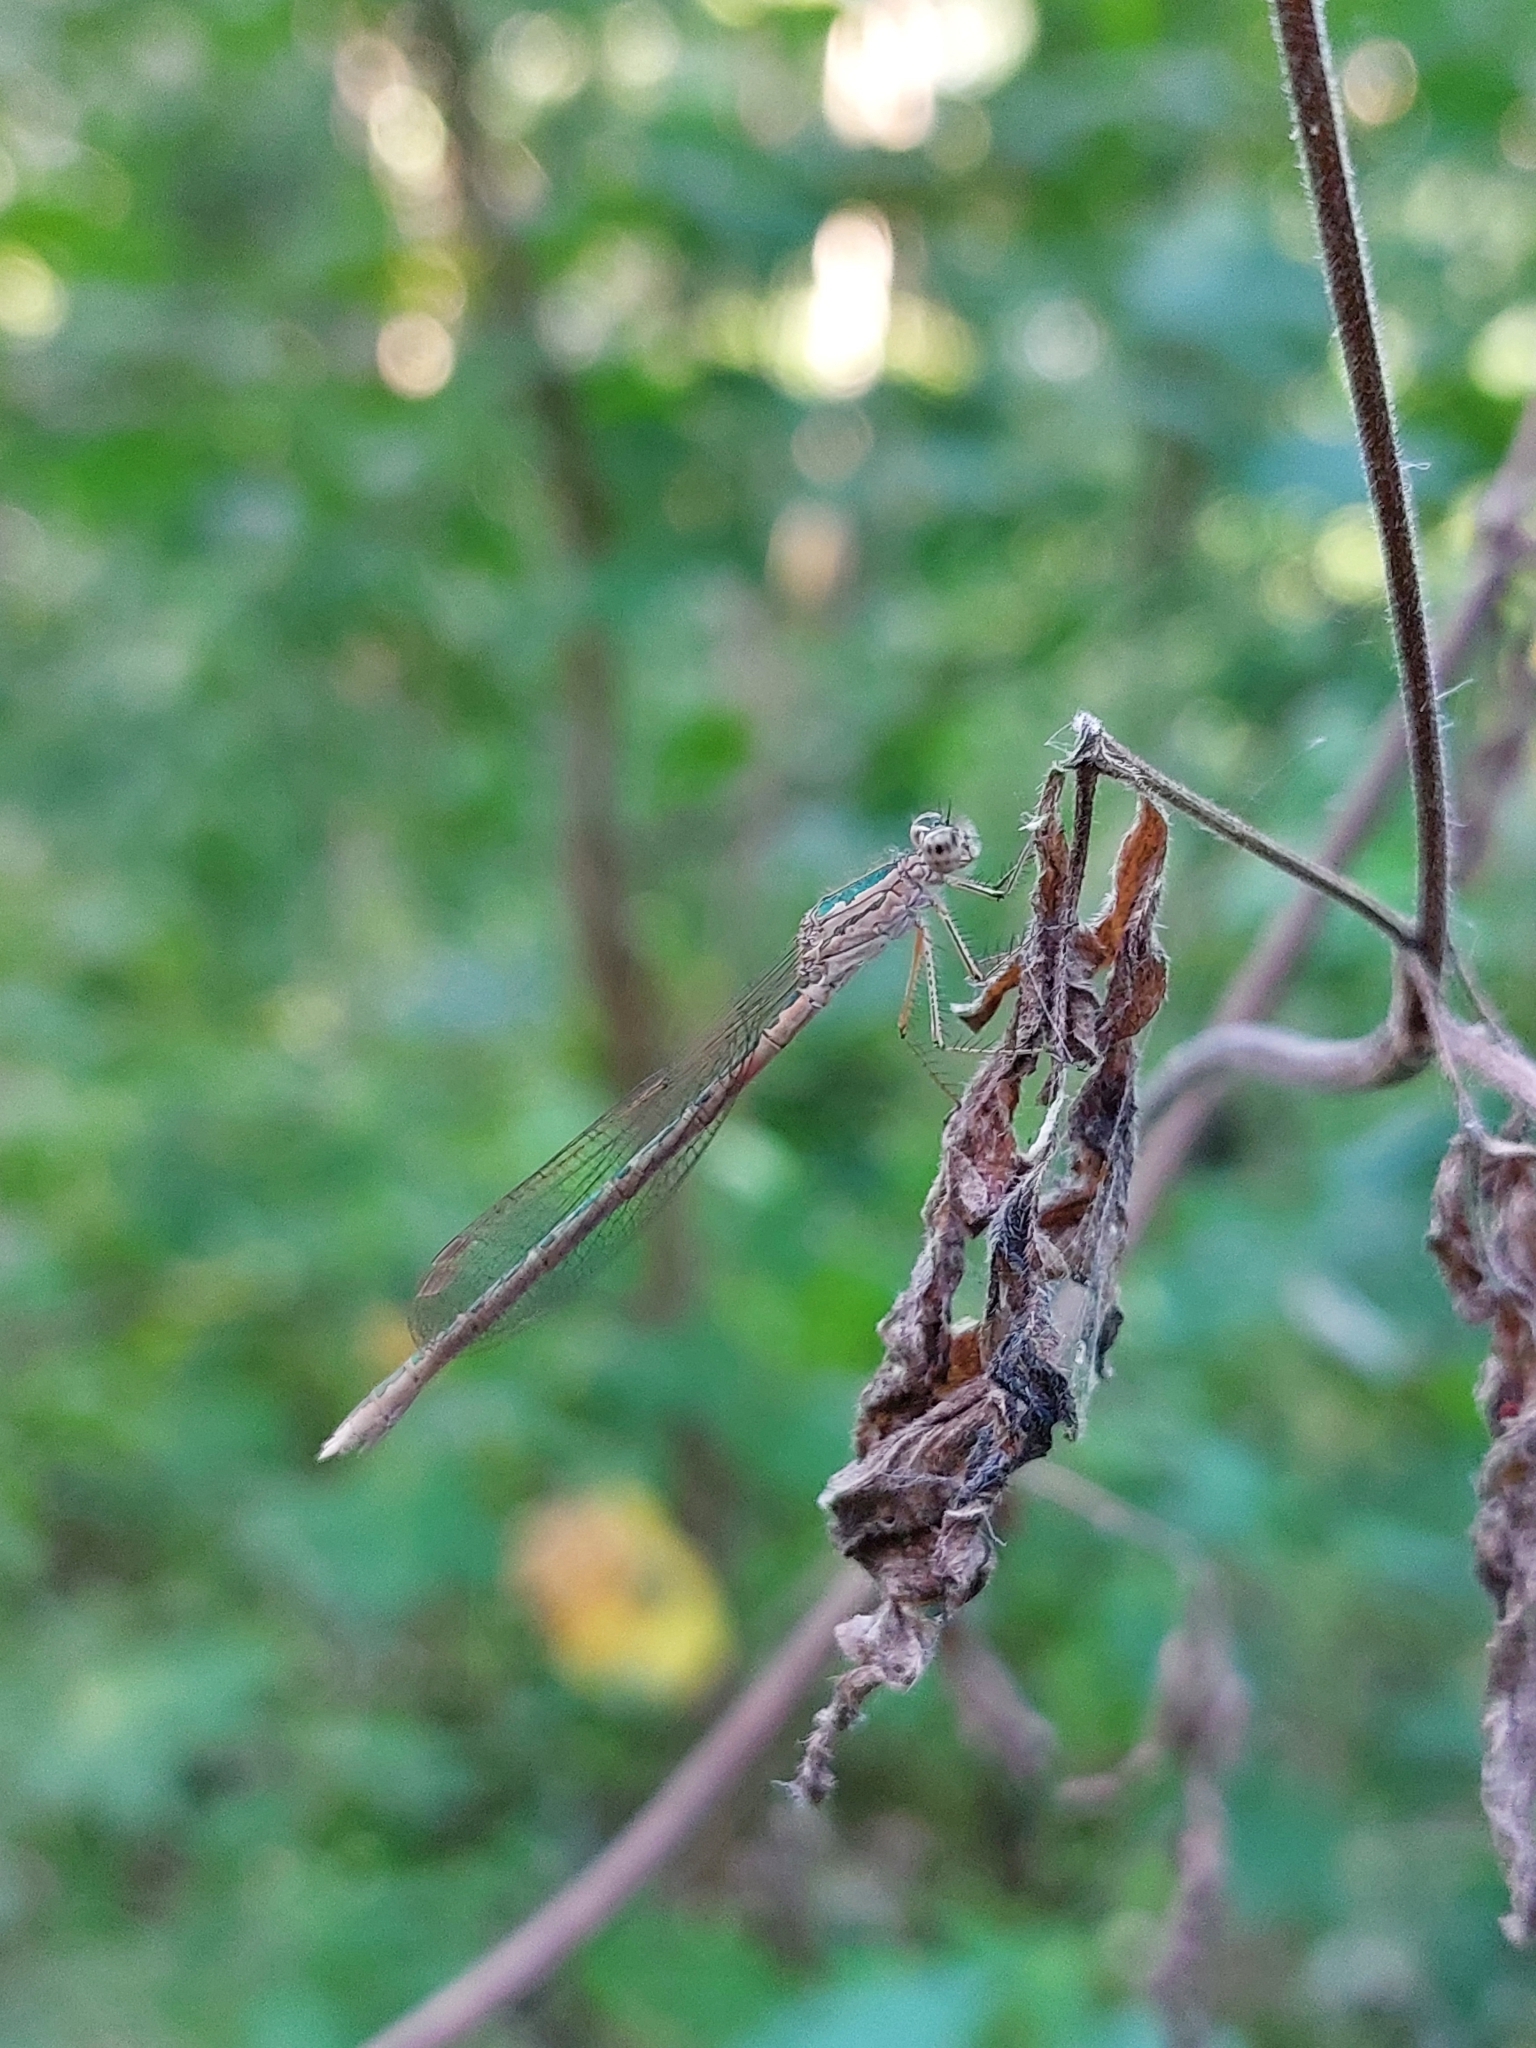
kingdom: Animalia
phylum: Arthropoda
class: Insecta
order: Odonata
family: Lestidae
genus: Sympecma
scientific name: Sympecma paedisca
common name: Siberian winter damsel
